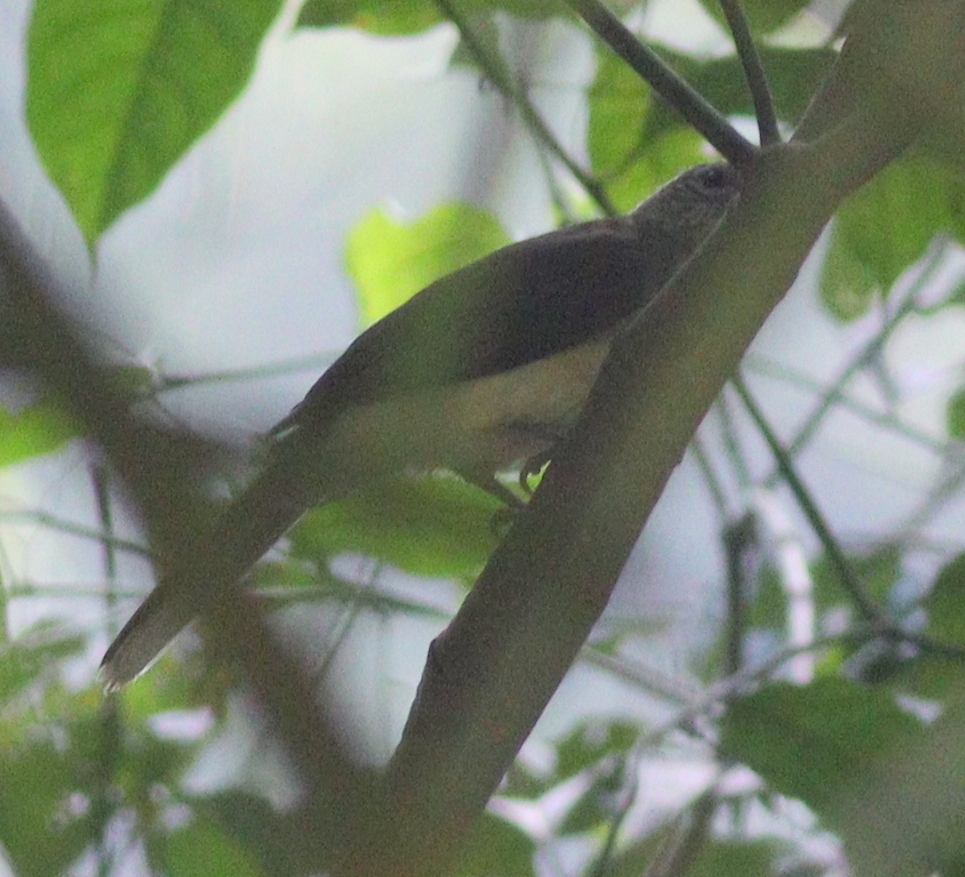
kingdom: Animalia
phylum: Chordata
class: Aves
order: Passeriformes
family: Pycnonotidae
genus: Thescelocichla
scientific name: Thescelocichla leucopleura
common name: Swamp palm bulbul
